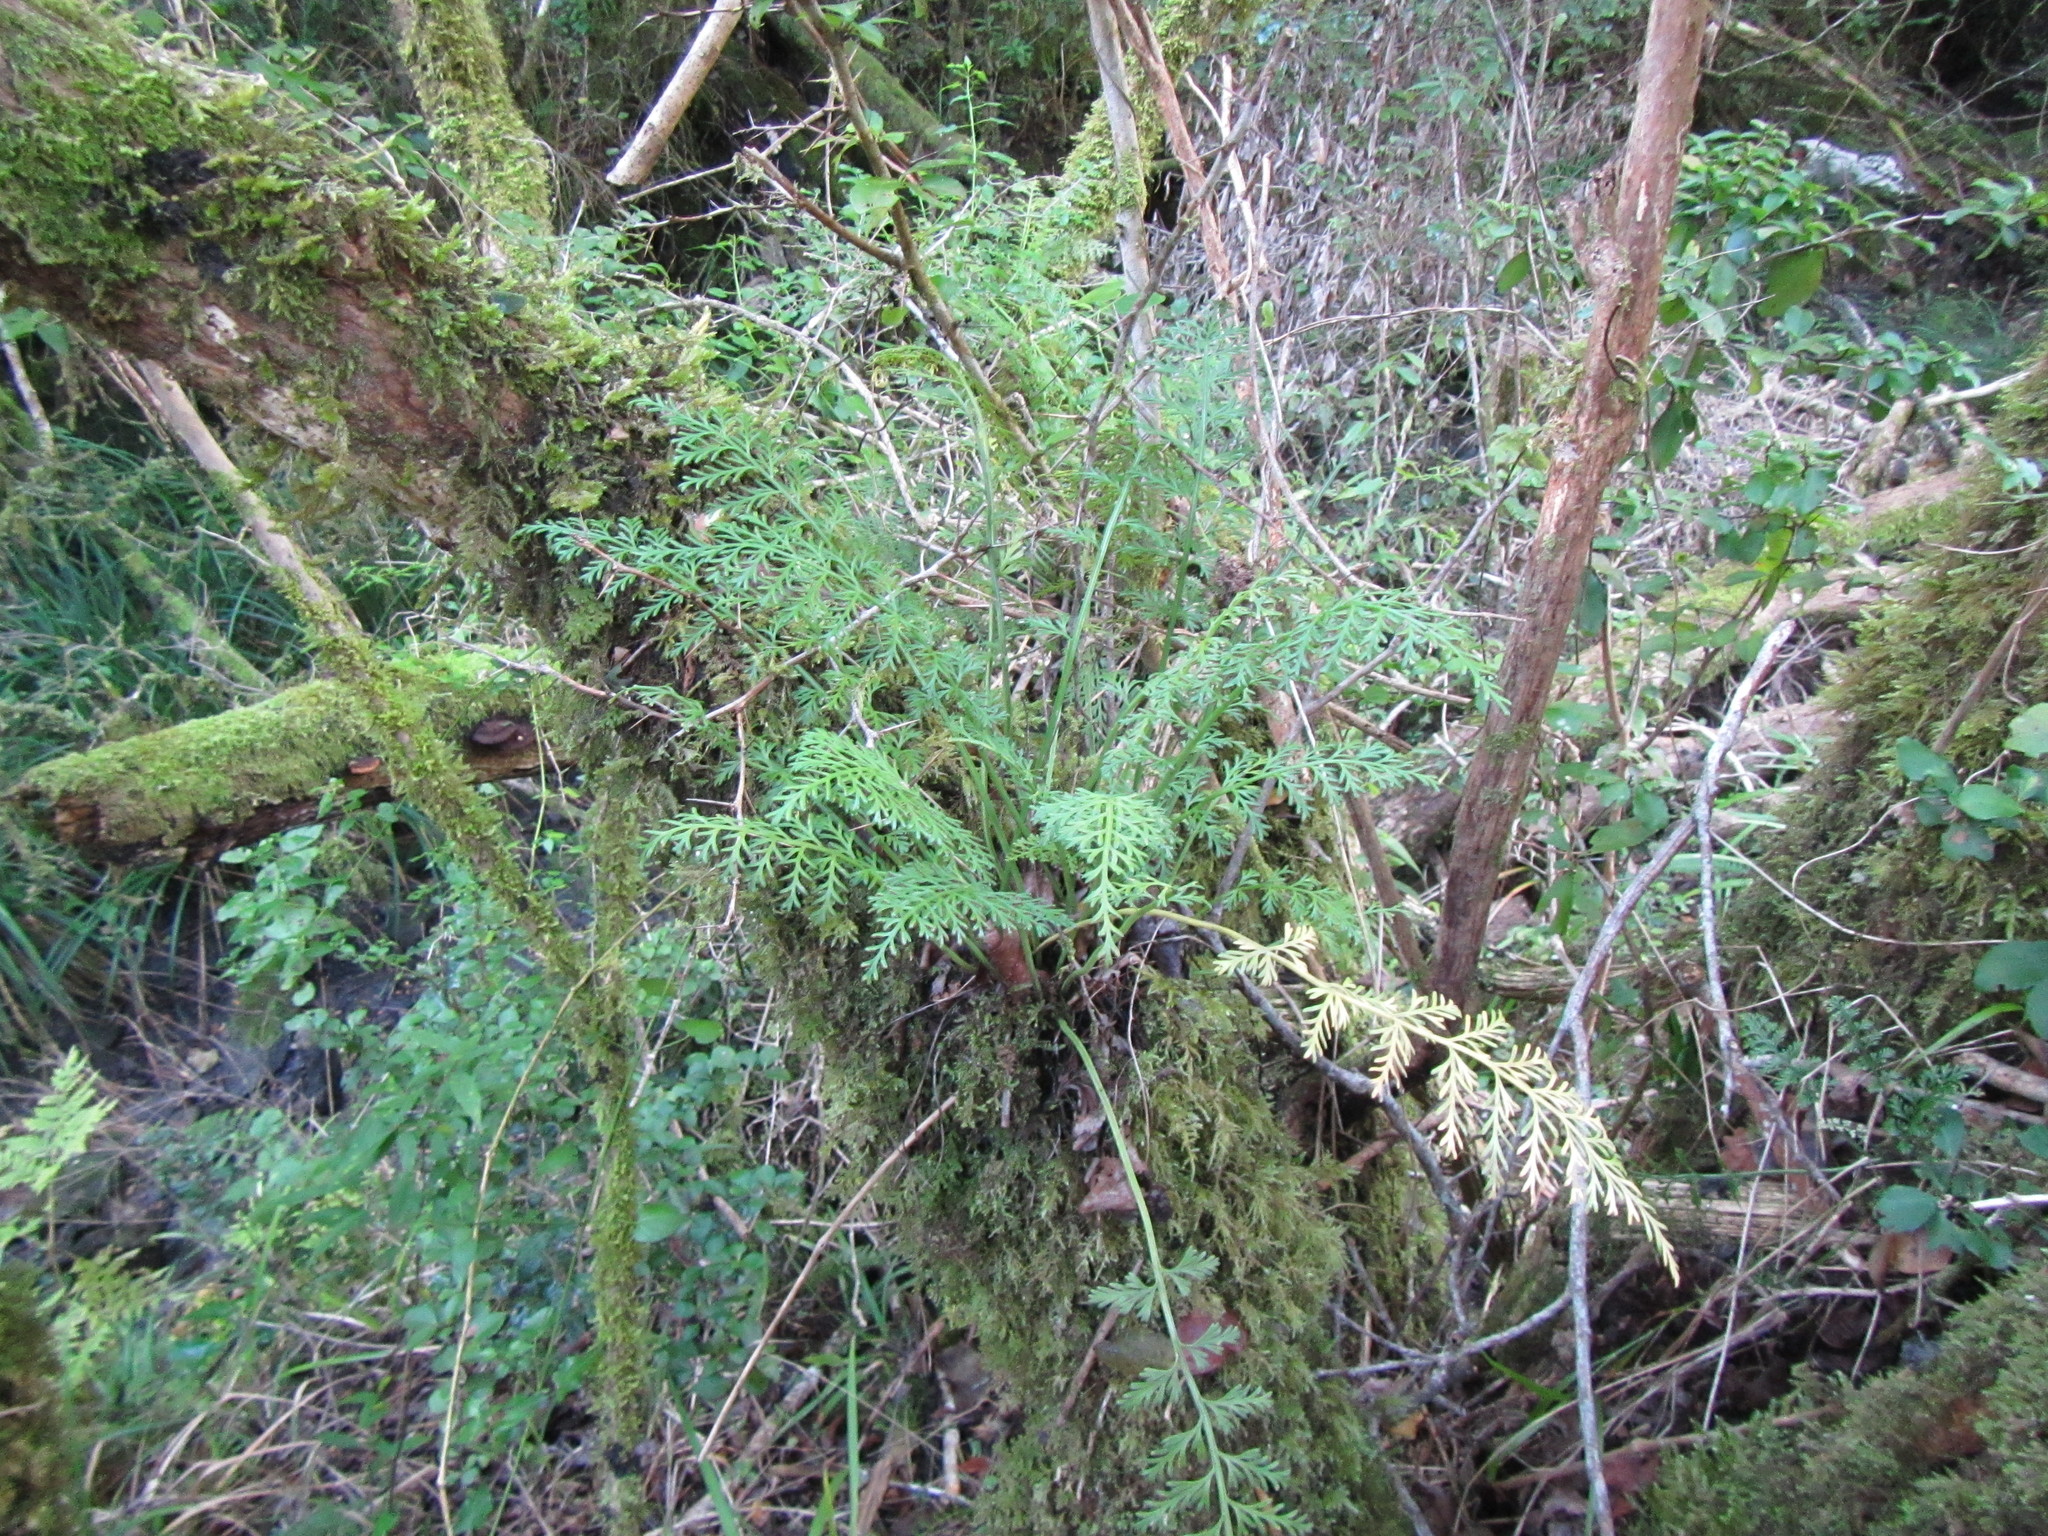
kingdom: Plantae
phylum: Tracheophyta
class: Polypodiopsida
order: Polypodiales
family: Aspleniaceae
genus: Asplenium
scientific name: Asplenium rutifolium
